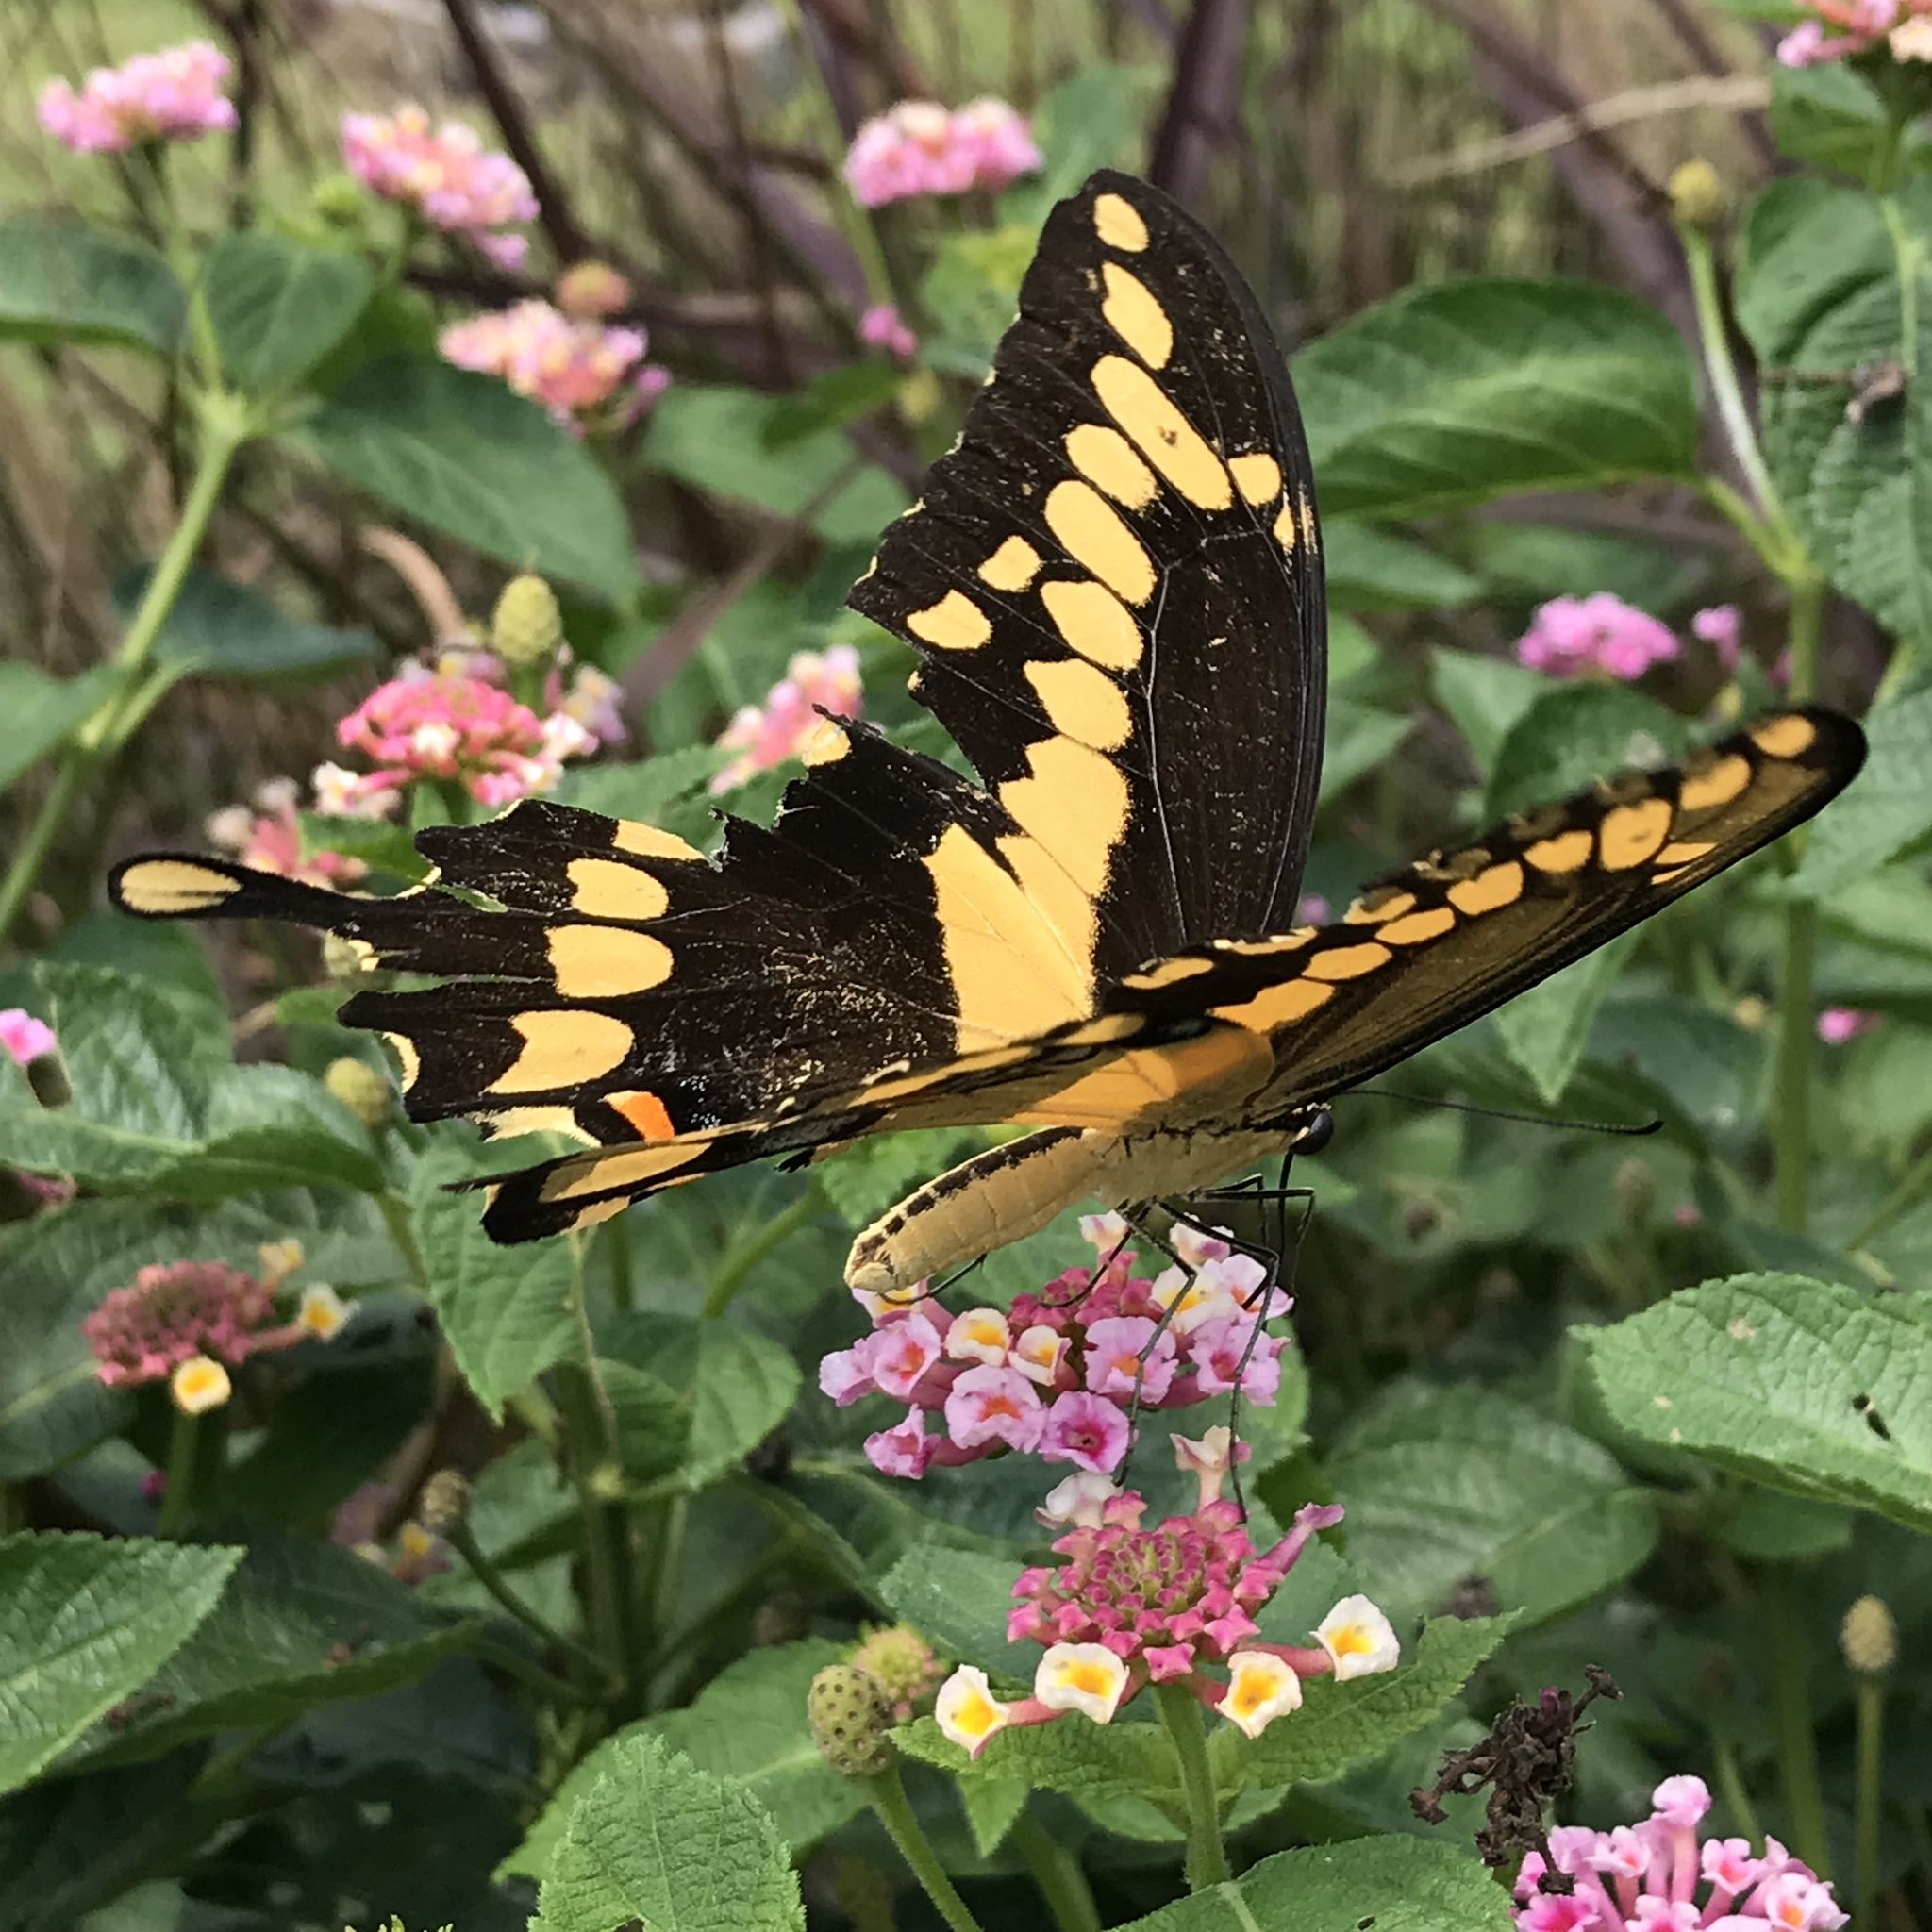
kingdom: Animalia
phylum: Arthropoda
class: Insecta
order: Lepidoptera
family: Papilionidae
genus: Papilio
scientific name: Papilio cresphontes
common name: Giant swallowtail
